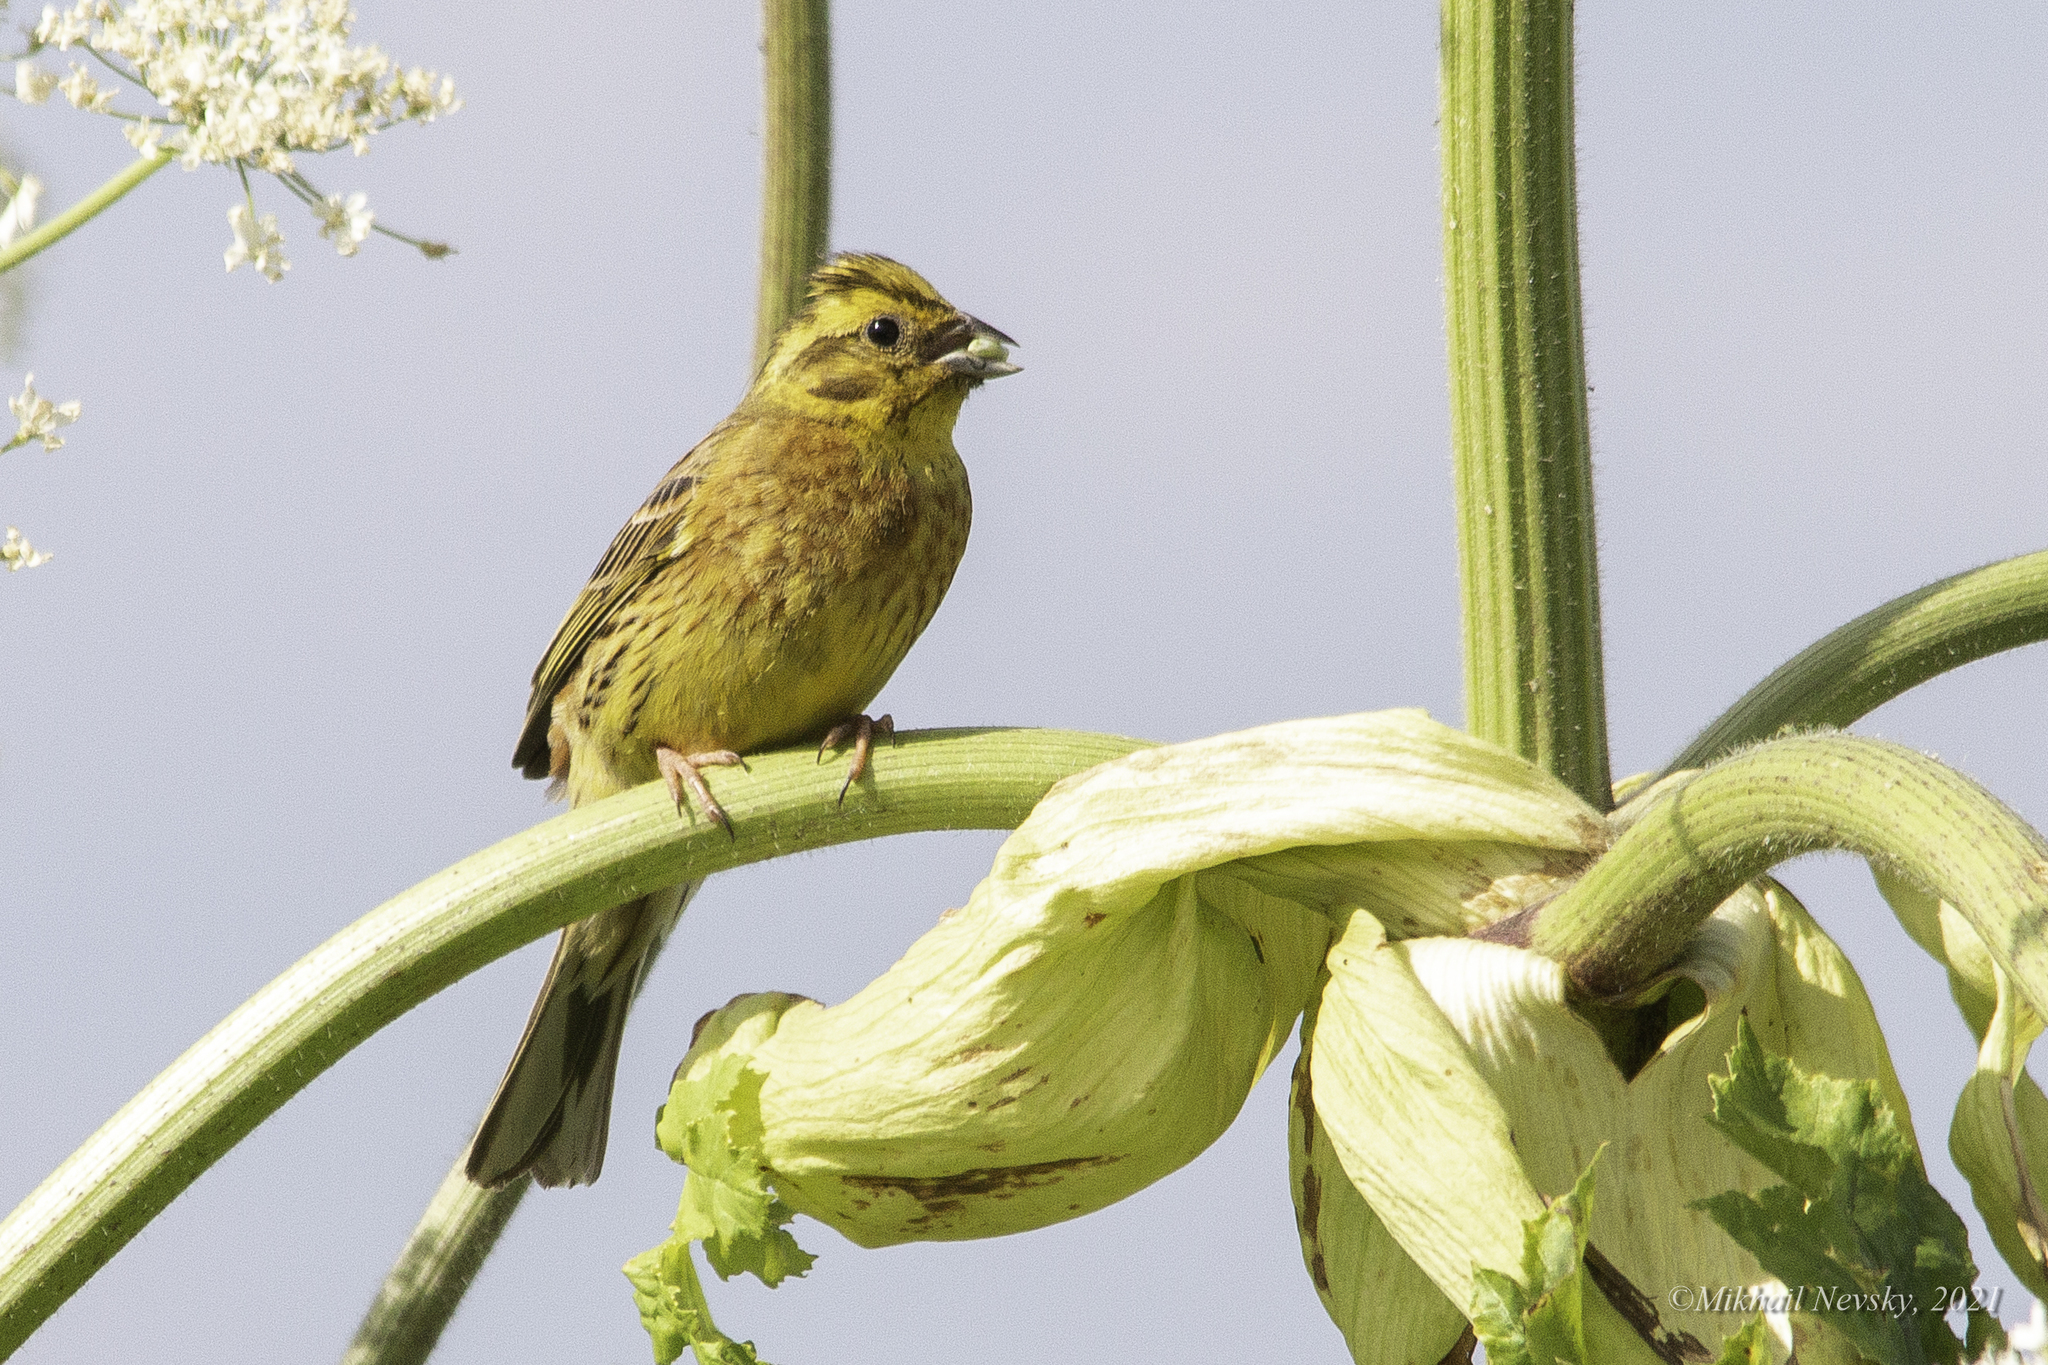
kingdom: Animalia
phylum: Chordata
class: Aves
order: Passeriformes
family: Emberizidae
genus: Emberiza
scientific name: Emberiza citrinella
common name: Yellowhammer
